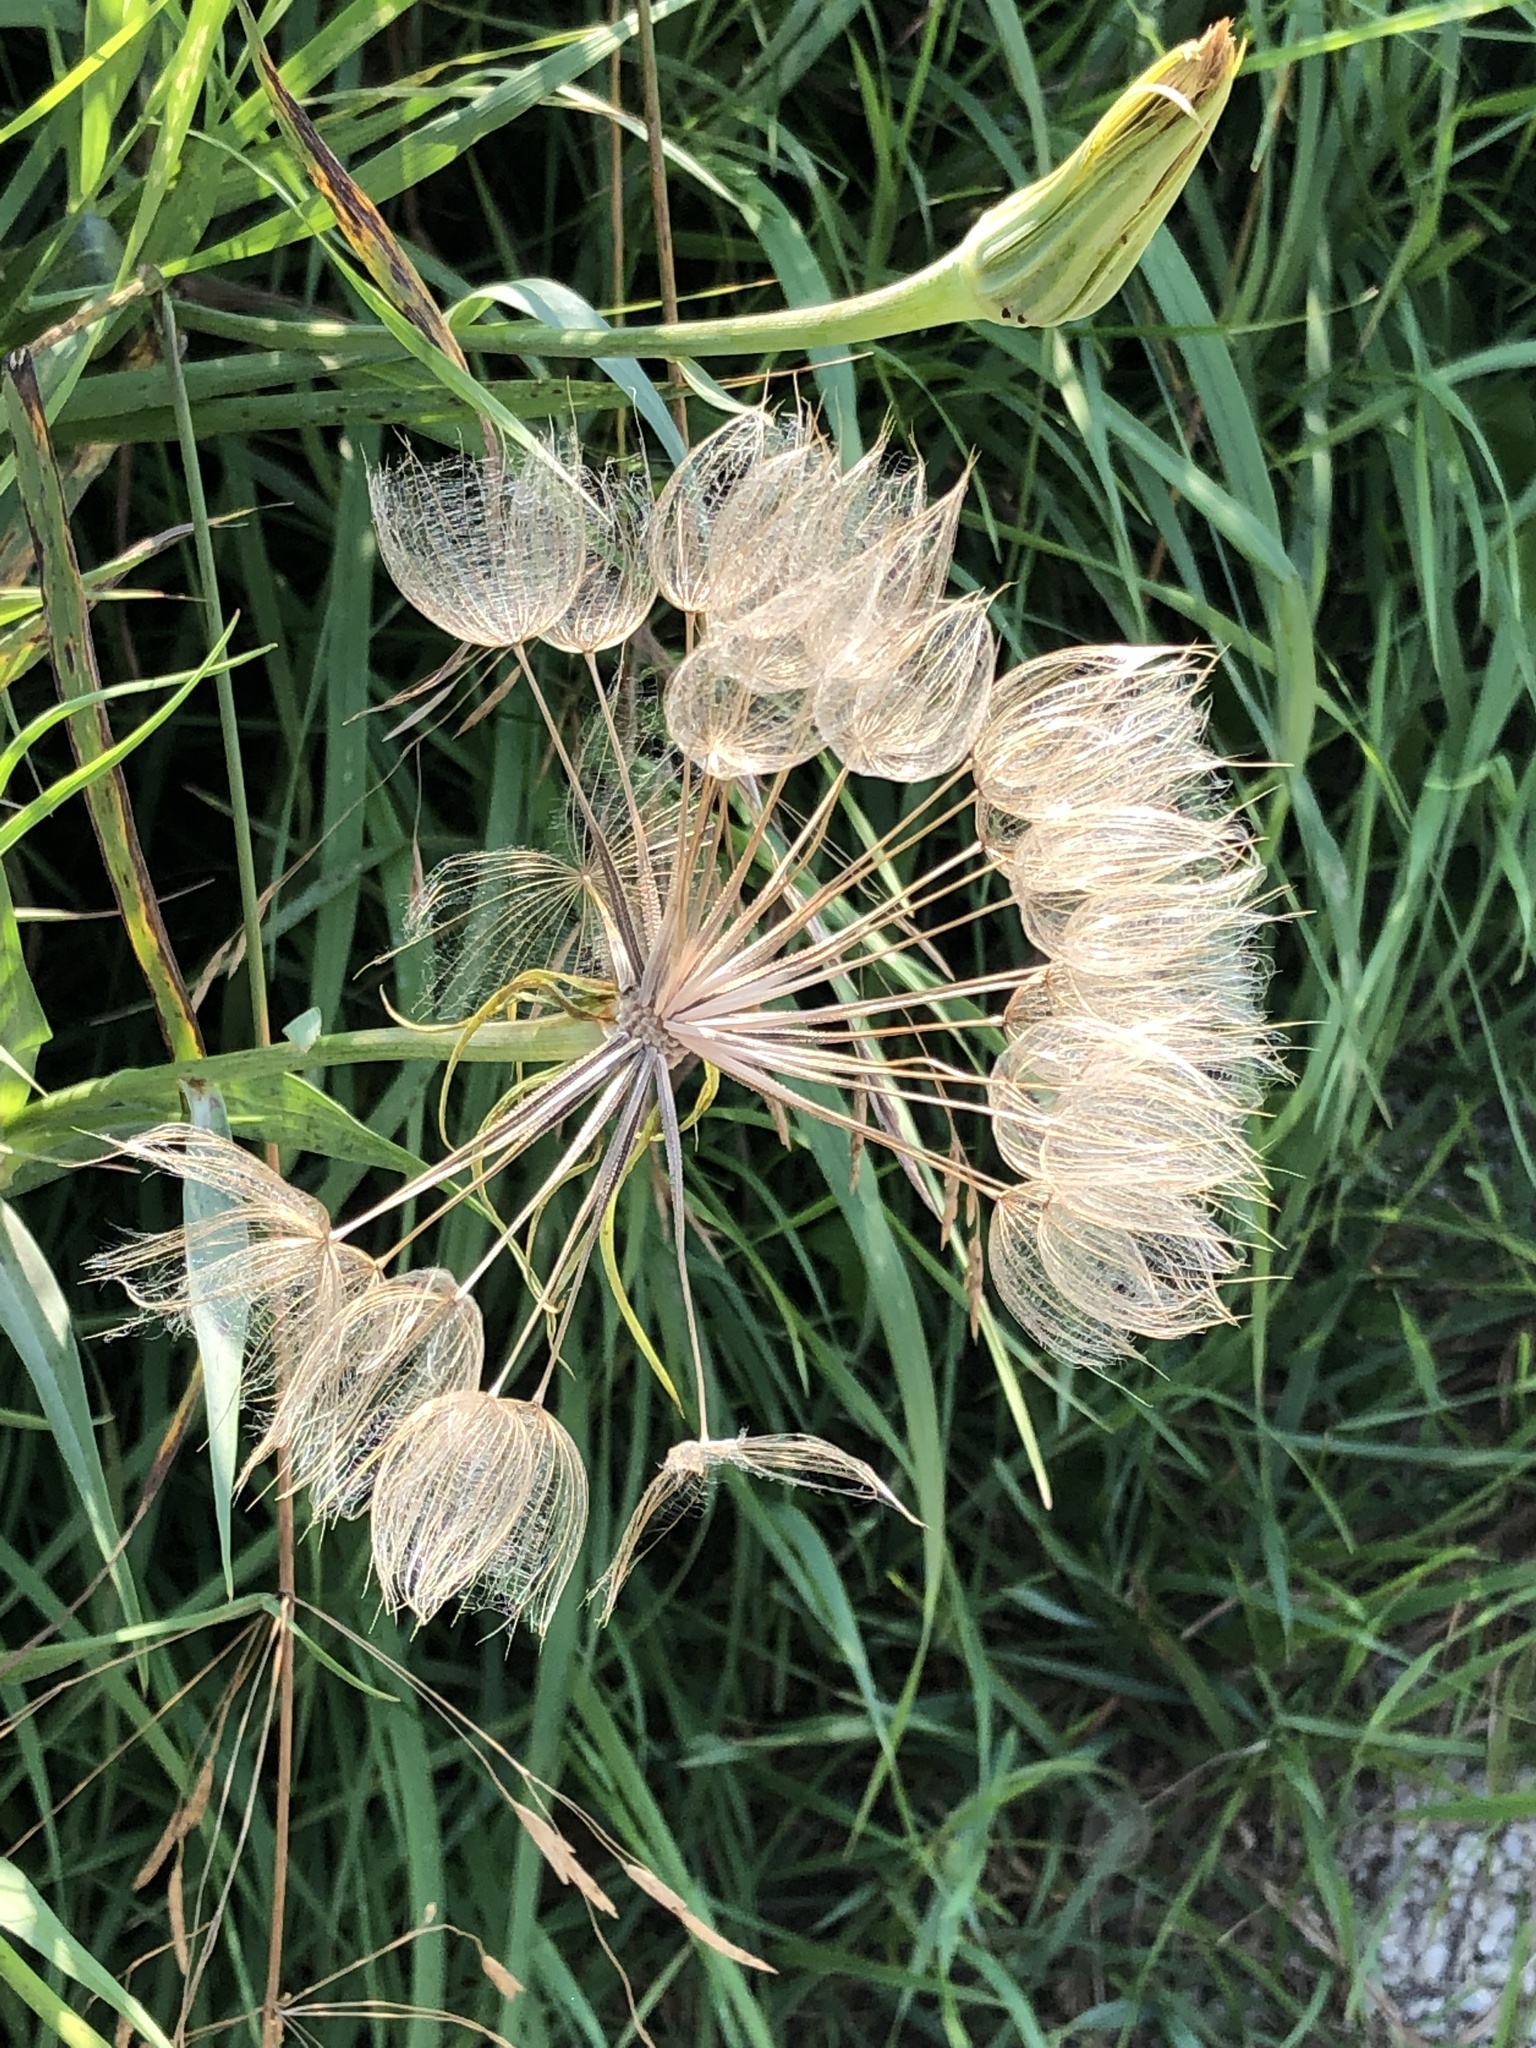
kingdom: Plantae
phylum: Tracheophyta
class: Magnoliopsida
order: Asterales
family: Asteraceae
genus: Tragopogon
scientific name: Tragopogon dubius
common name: Yellow salsify
